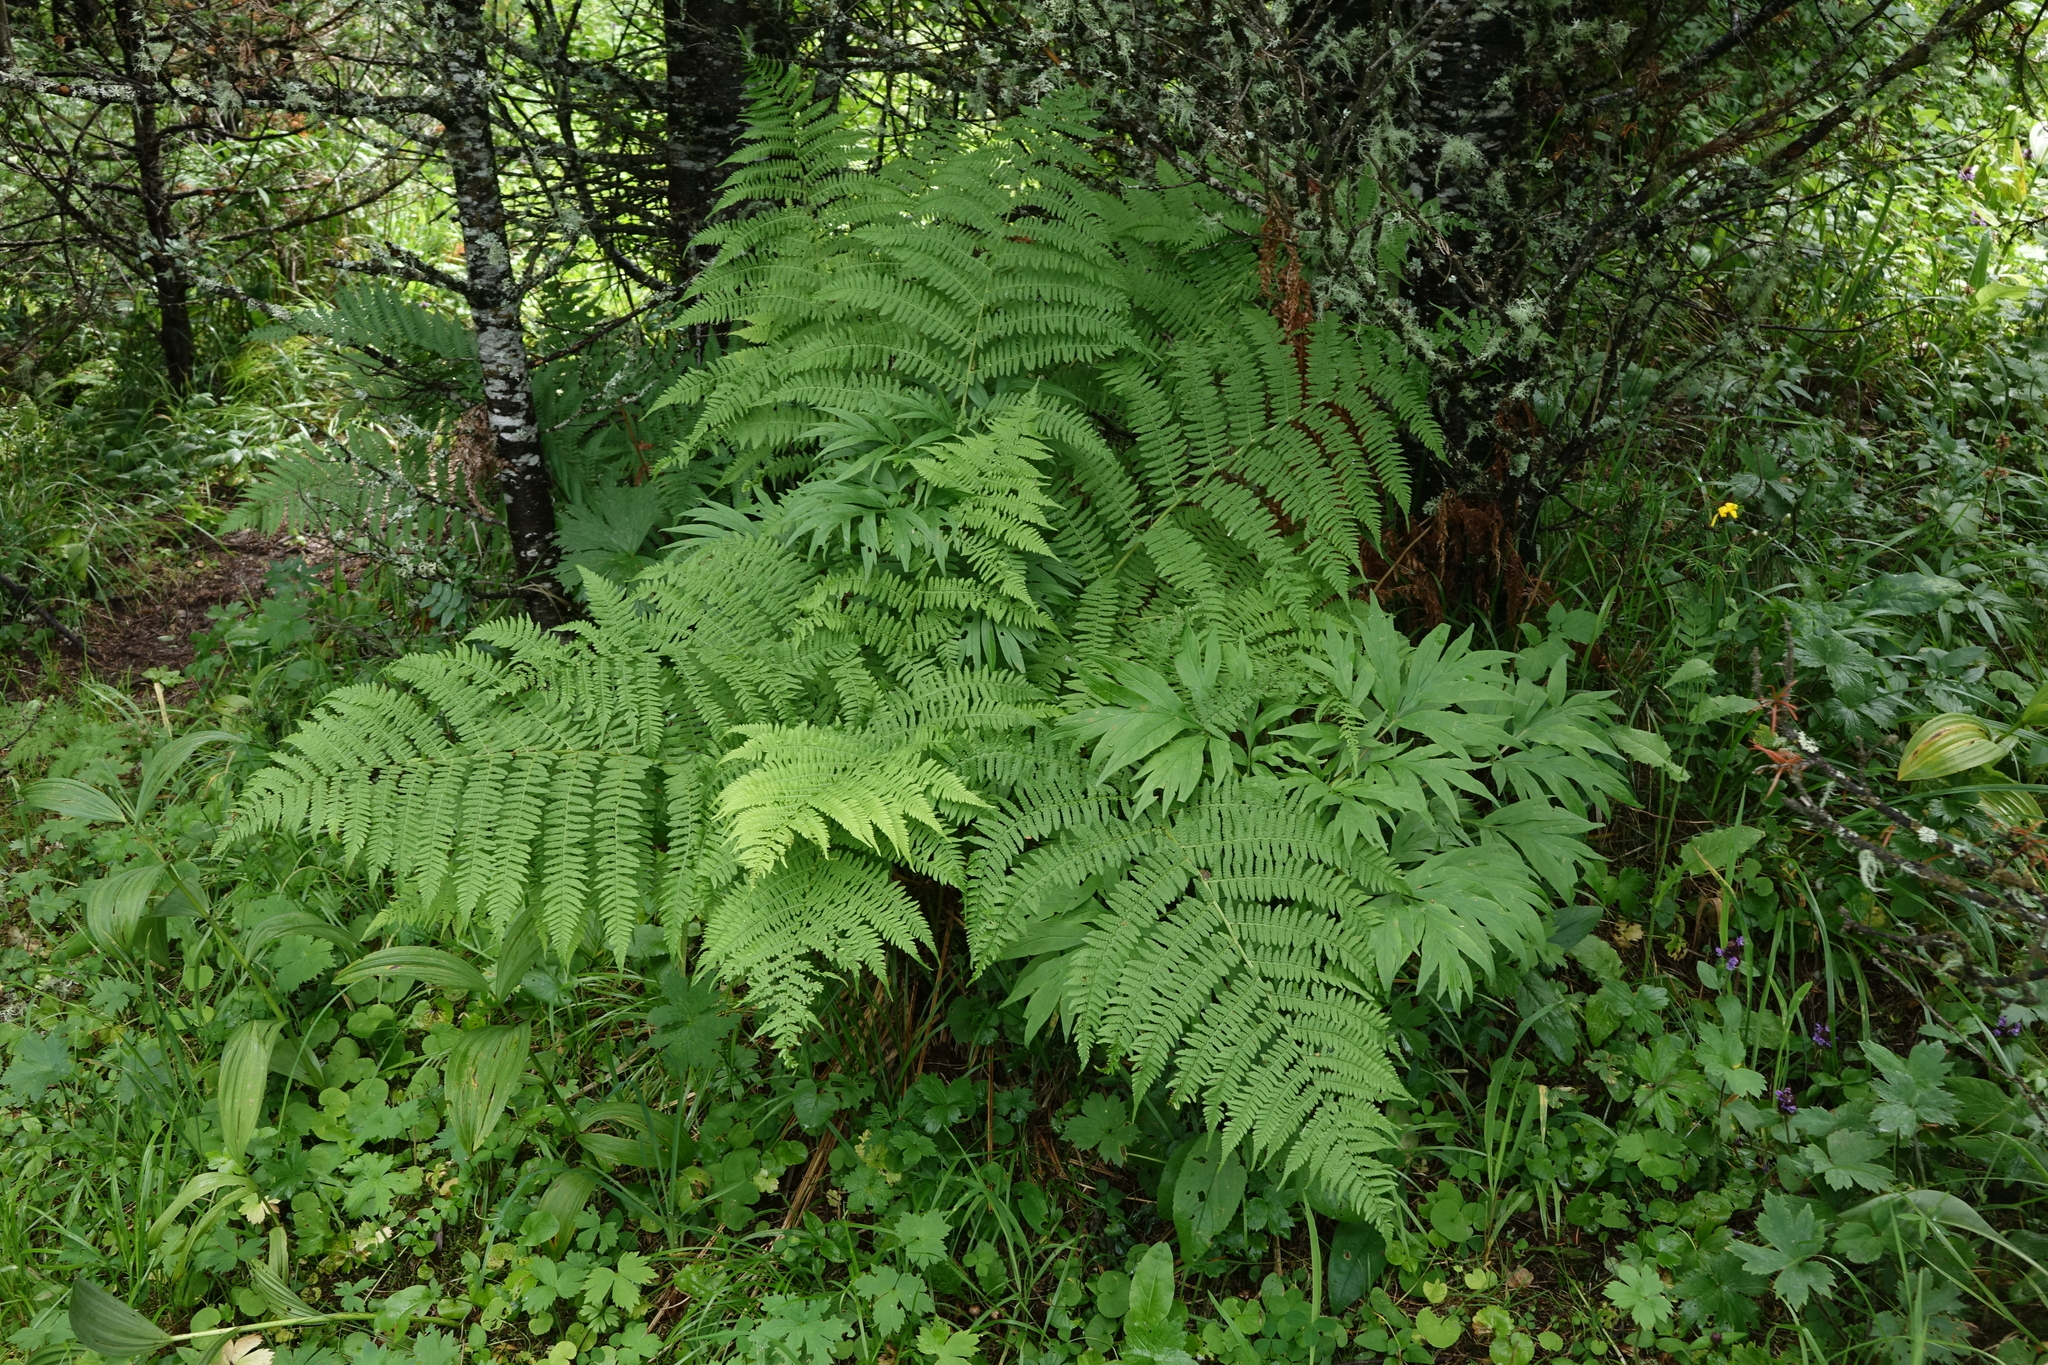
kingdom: Plantae
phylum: Tracheophyta
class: Polypodiopsida
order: Polypodiales
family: Athyriaceae
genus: Athyrium
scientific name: Athyrium filix-femina
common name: Lady fern
